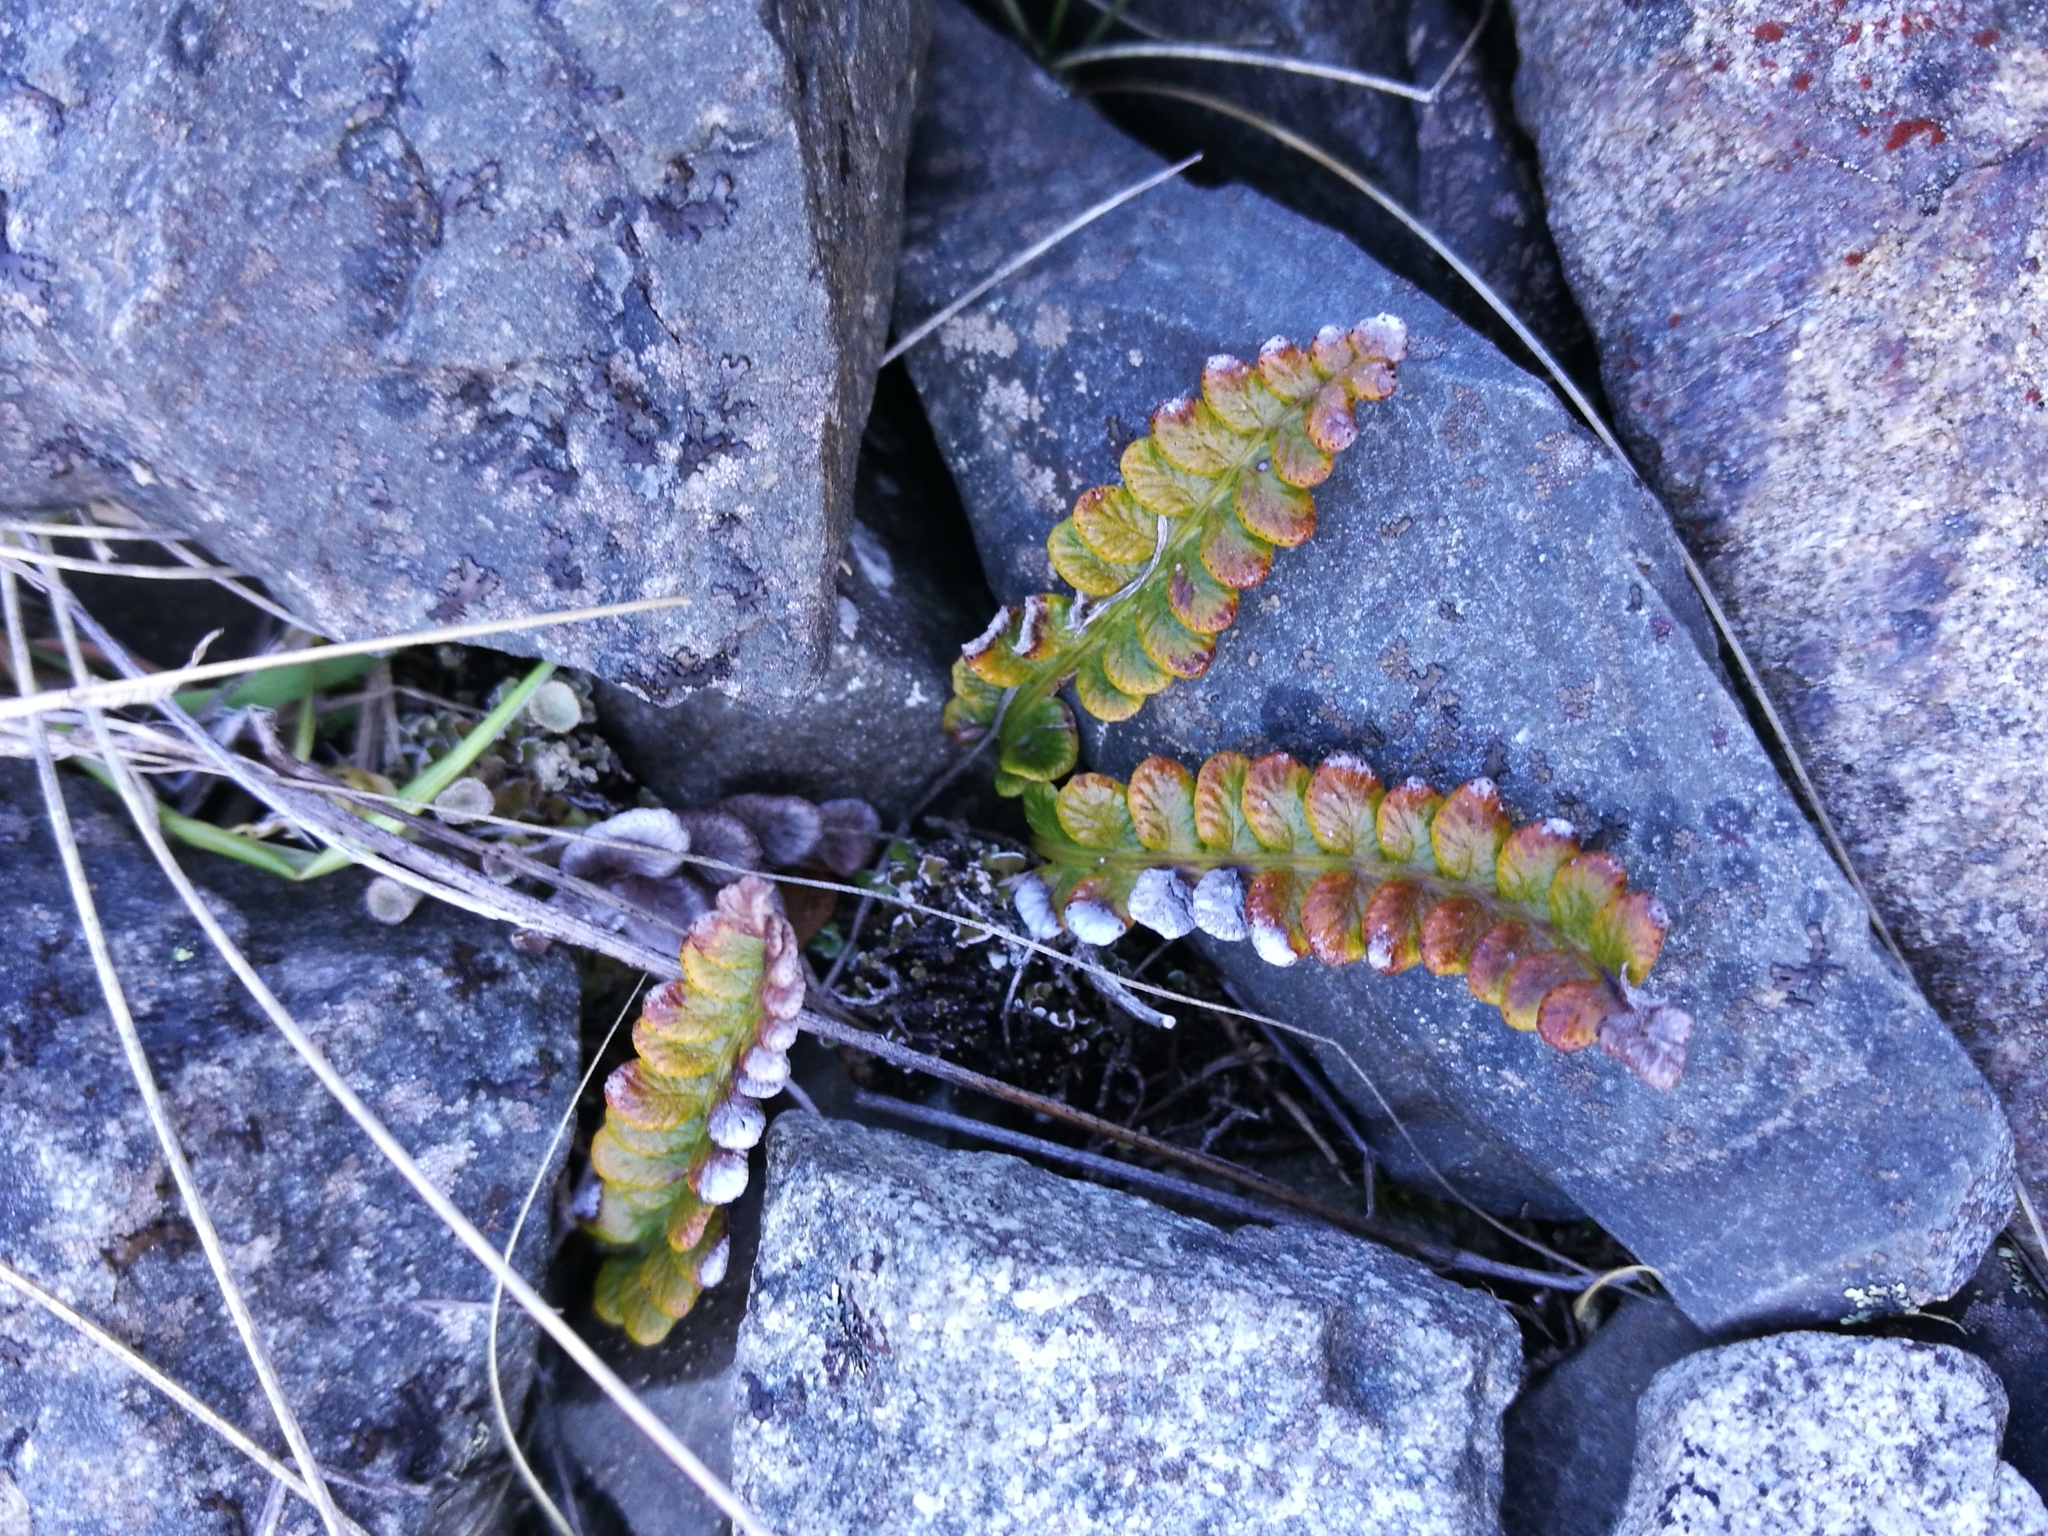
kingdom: Plantae
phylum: Tracheophyta
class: Polypodiopsida
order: Polypodiales
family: Blechnaceae
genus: Austroblechnum
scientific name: Austroblechnum penna-marina
